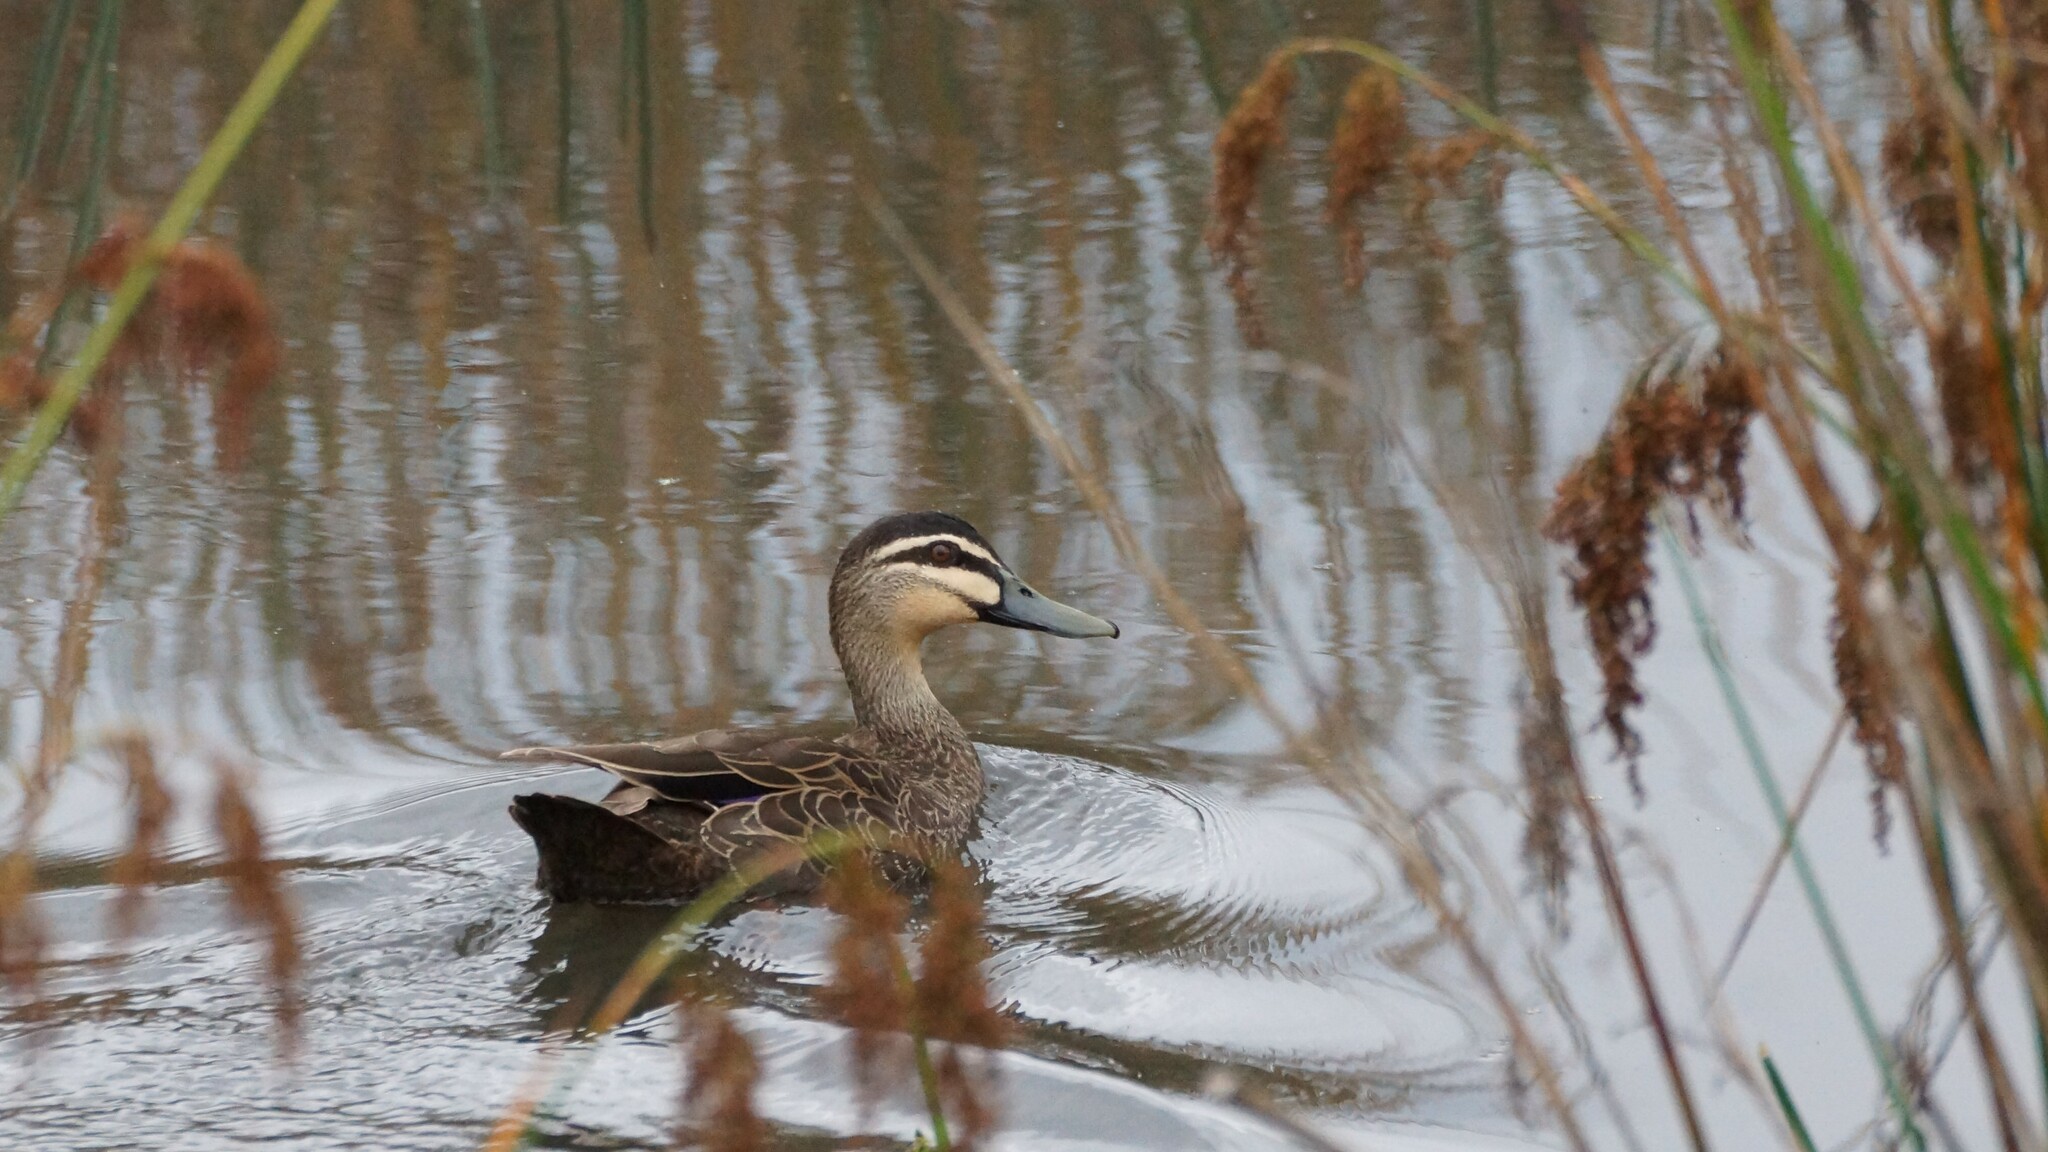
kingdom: Animalia
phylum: Chordata
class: Aves
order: Anseriformes
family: Anatidae
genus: Anas
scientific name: Anas superciliosa
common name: Pacific black duck
